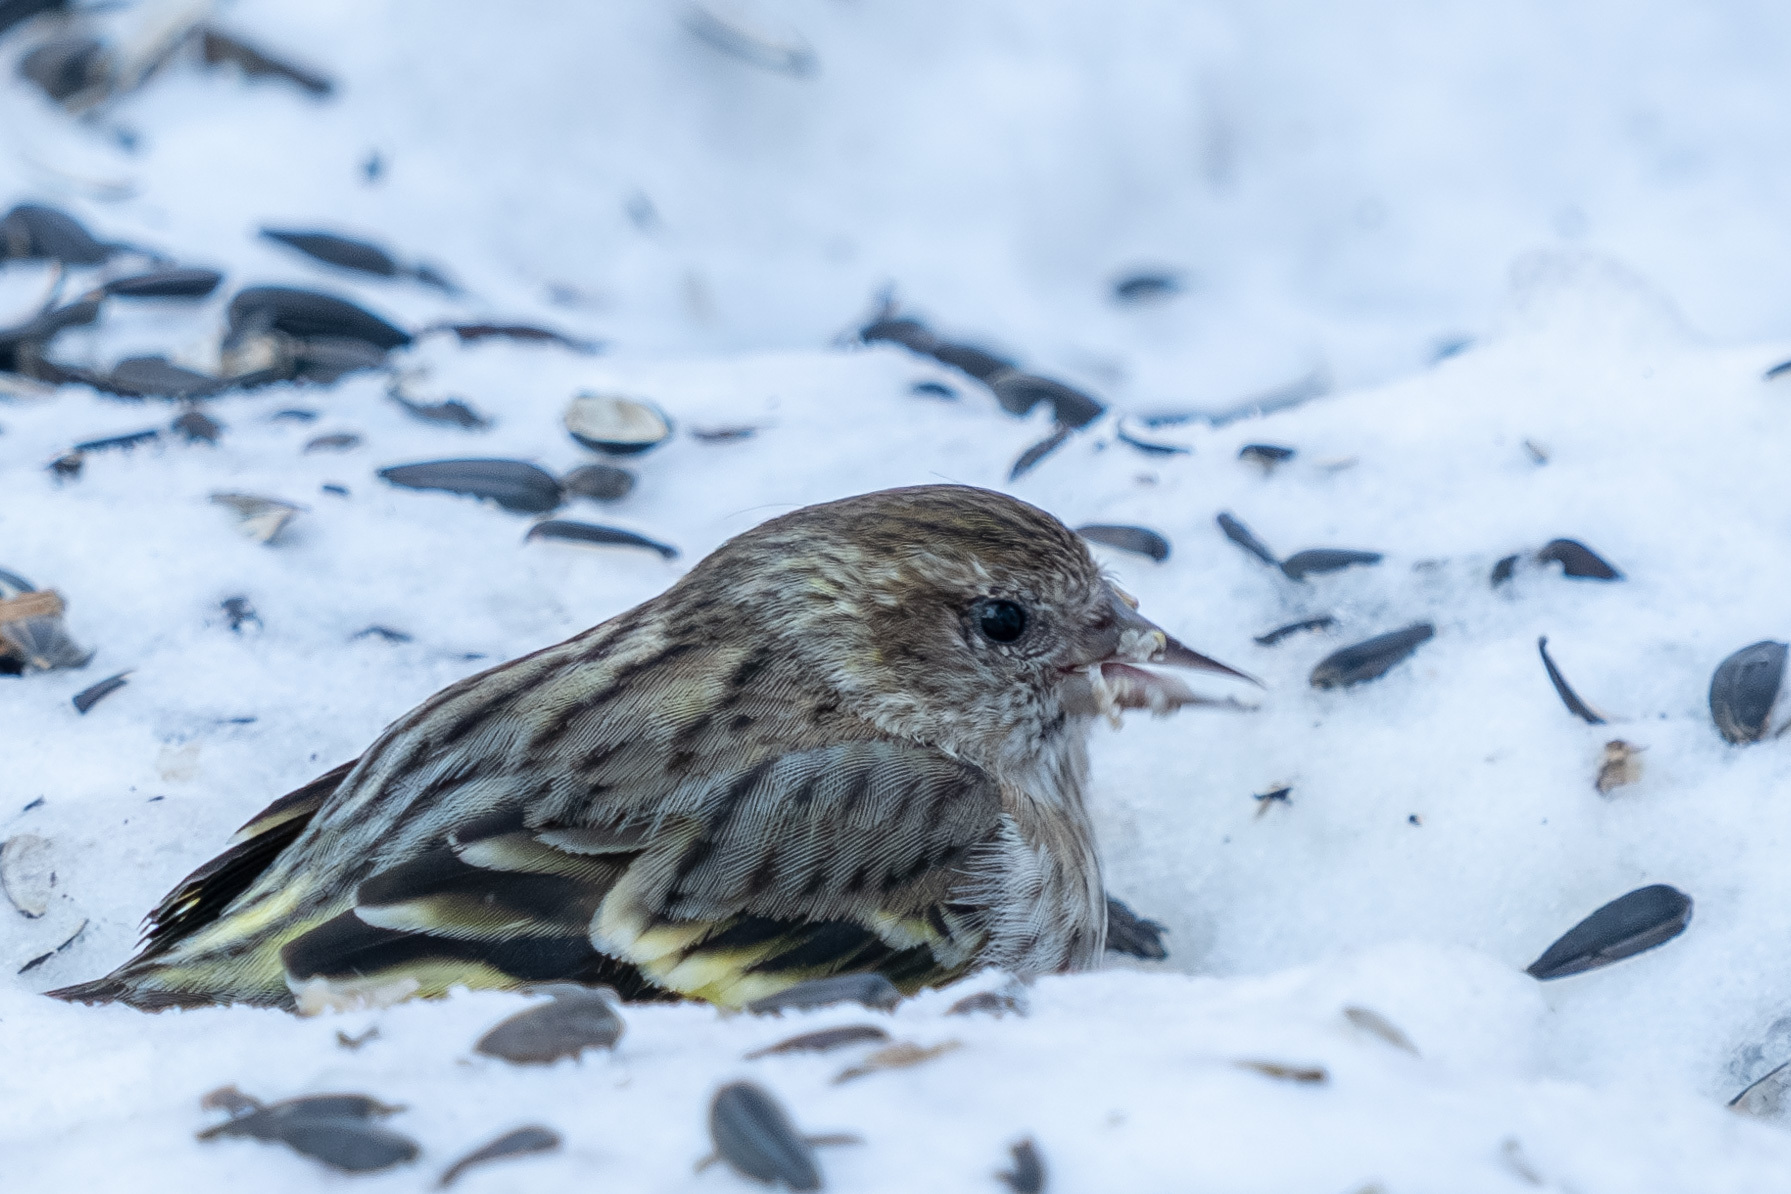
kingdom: Animalia
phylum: Chordata
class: Aves
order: Passeriformes
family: Fringillidae
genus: Spinus
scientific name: Spinus pinus
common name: Pine siskin
